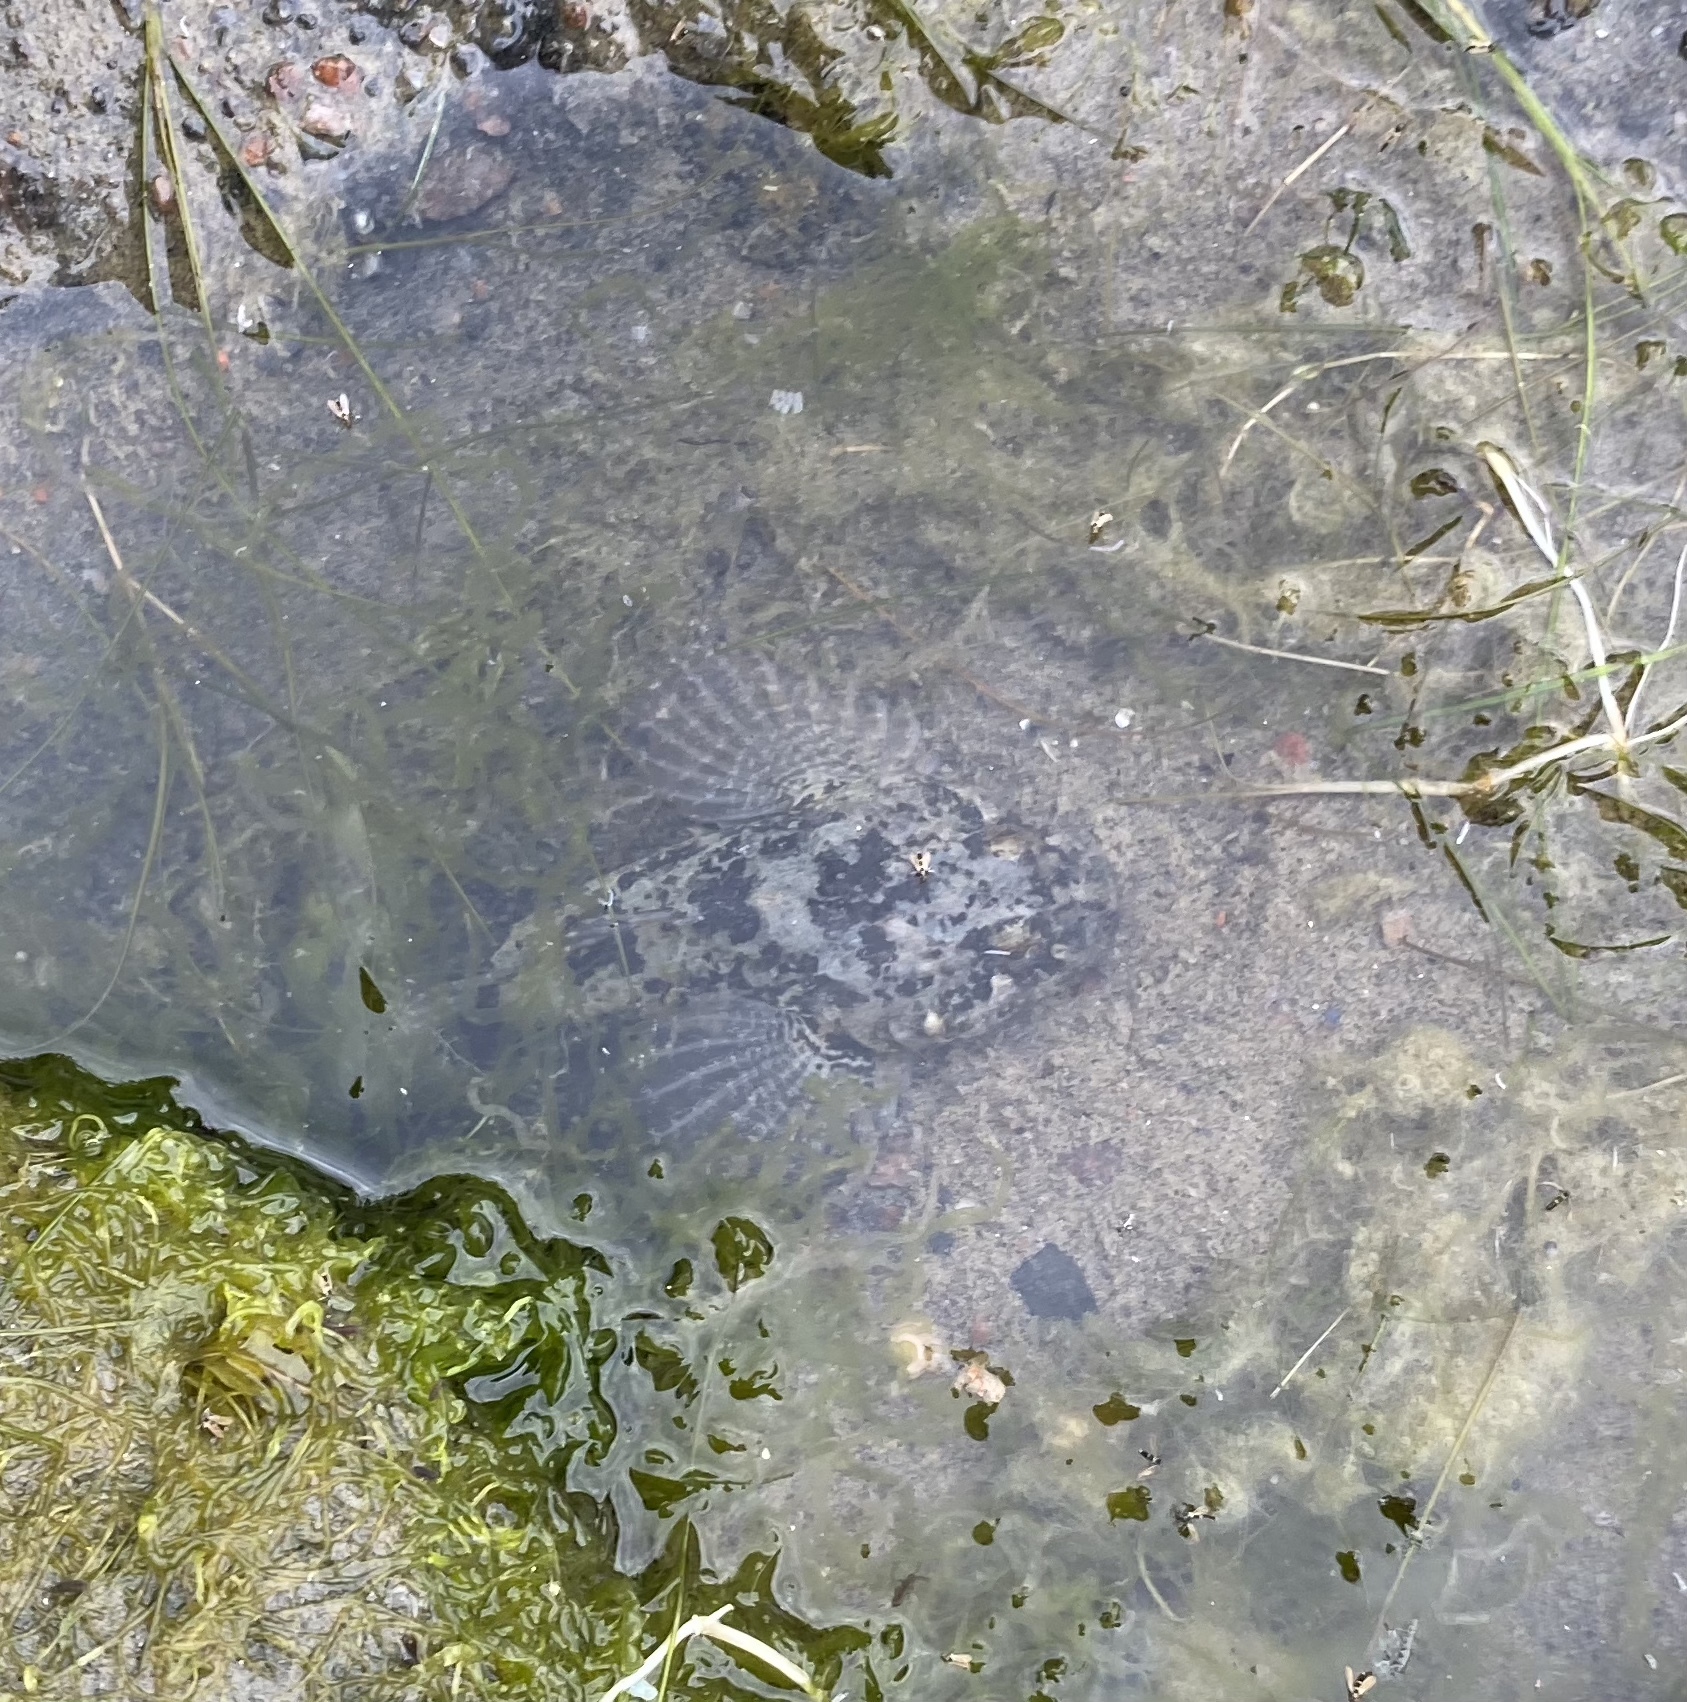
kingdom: Animalia
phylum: Chordata
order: Scorpaeniformes
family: Cottidae
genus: Cottus
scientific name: Cottus gobio
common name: Bullhead
